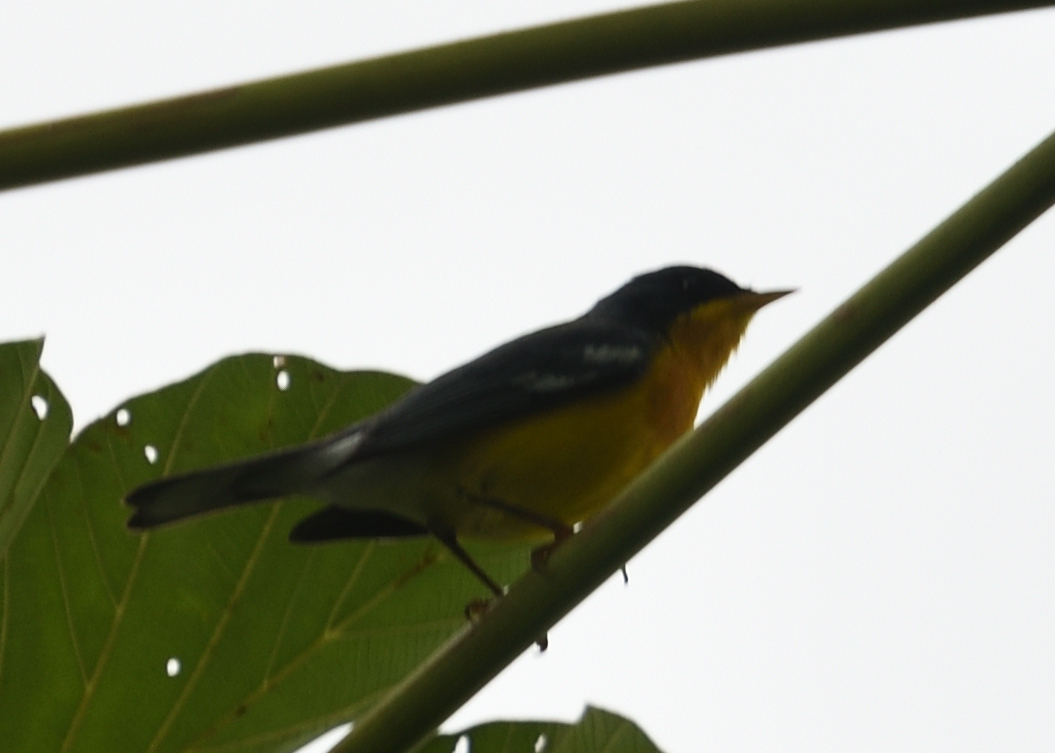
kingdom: Animalia
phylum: Chordata
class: Aves
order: Passeriformes
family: Parulidae
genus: Setophaga
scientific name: Setophaga pitiayumi
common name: Tropical parula
